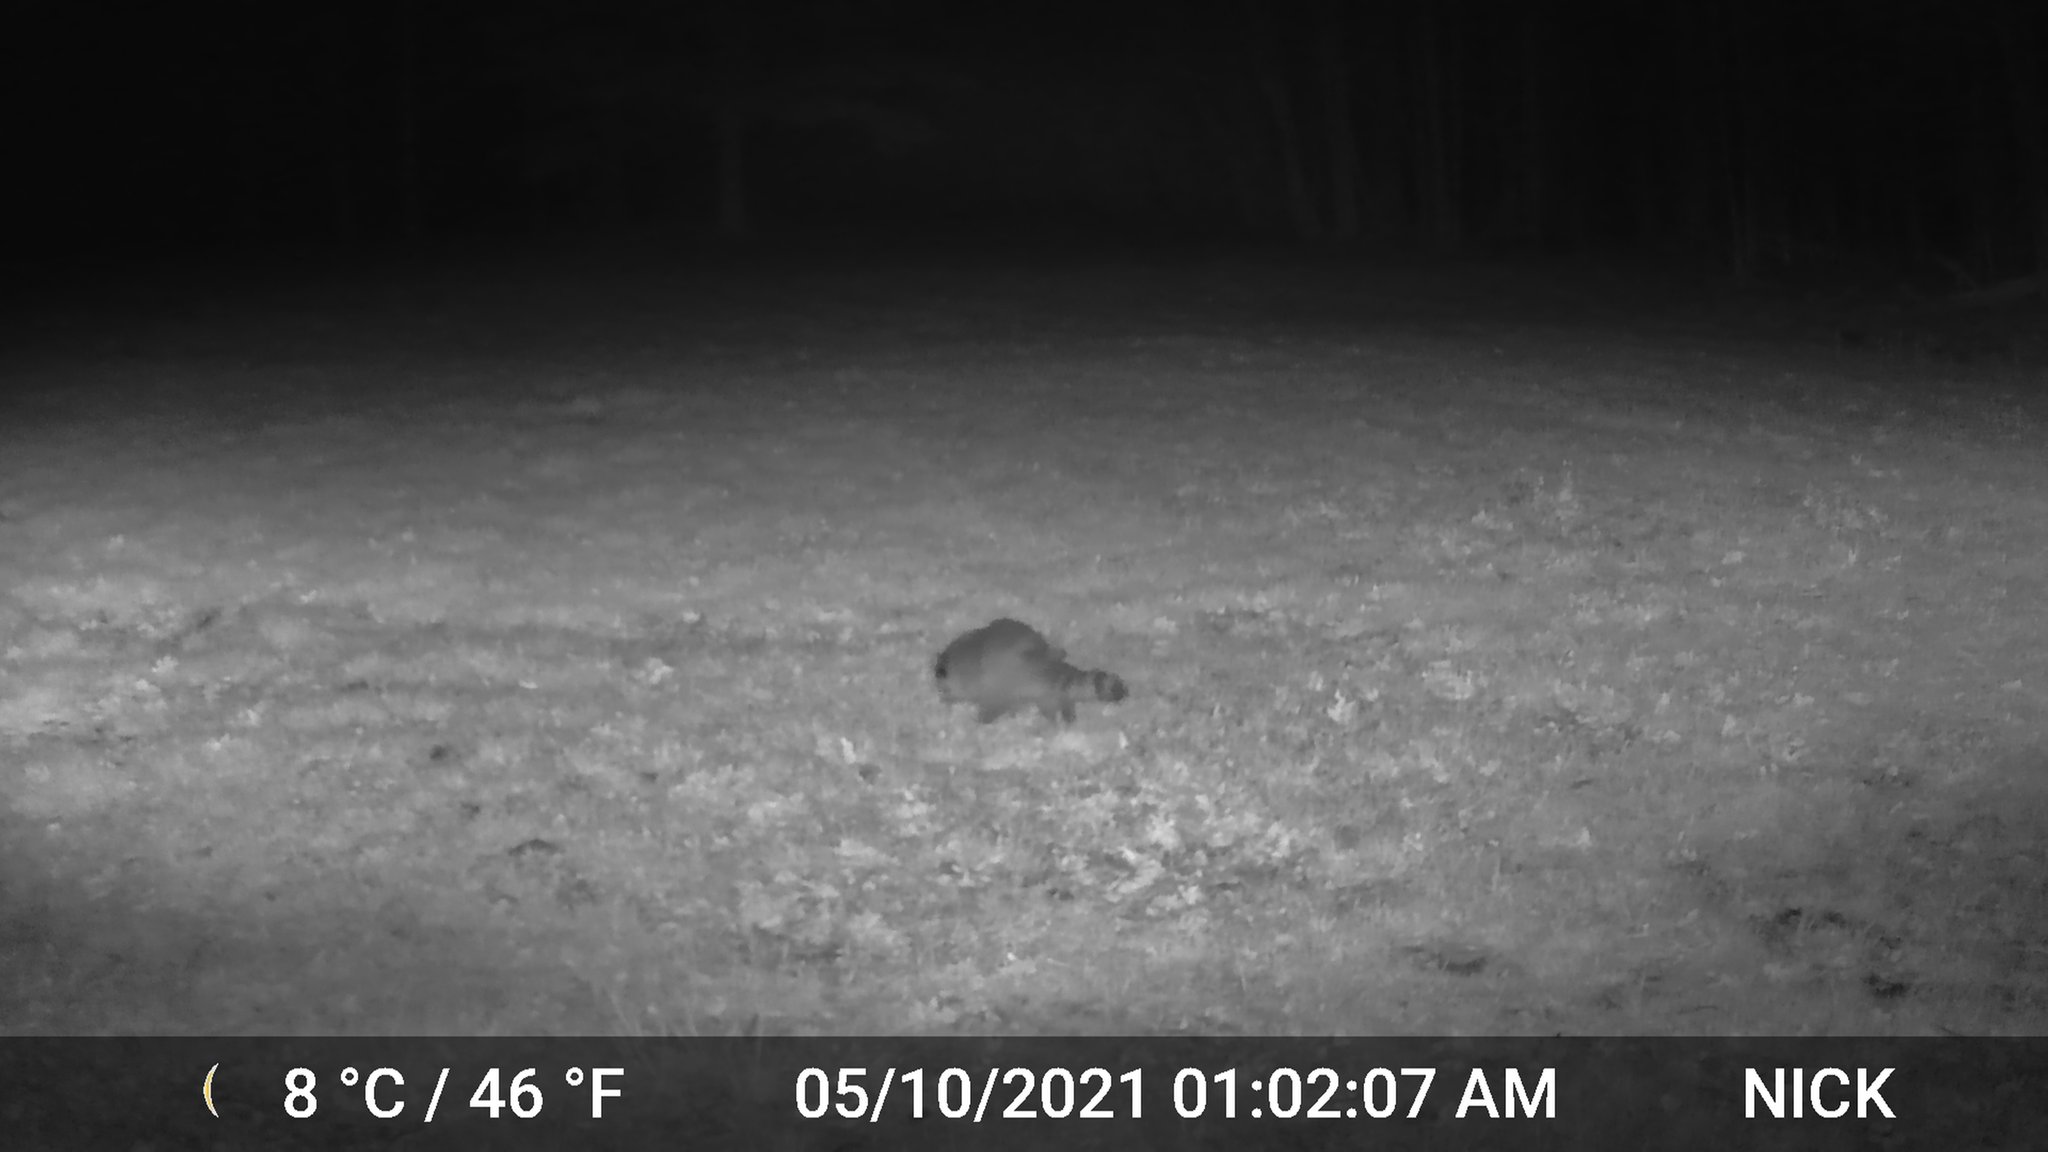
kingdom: Animalia
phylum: Chordata
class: Mammalia
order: Carnivora
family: Procyonidae
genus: Procyon
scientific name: Procyon lotor
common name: Raccoon
